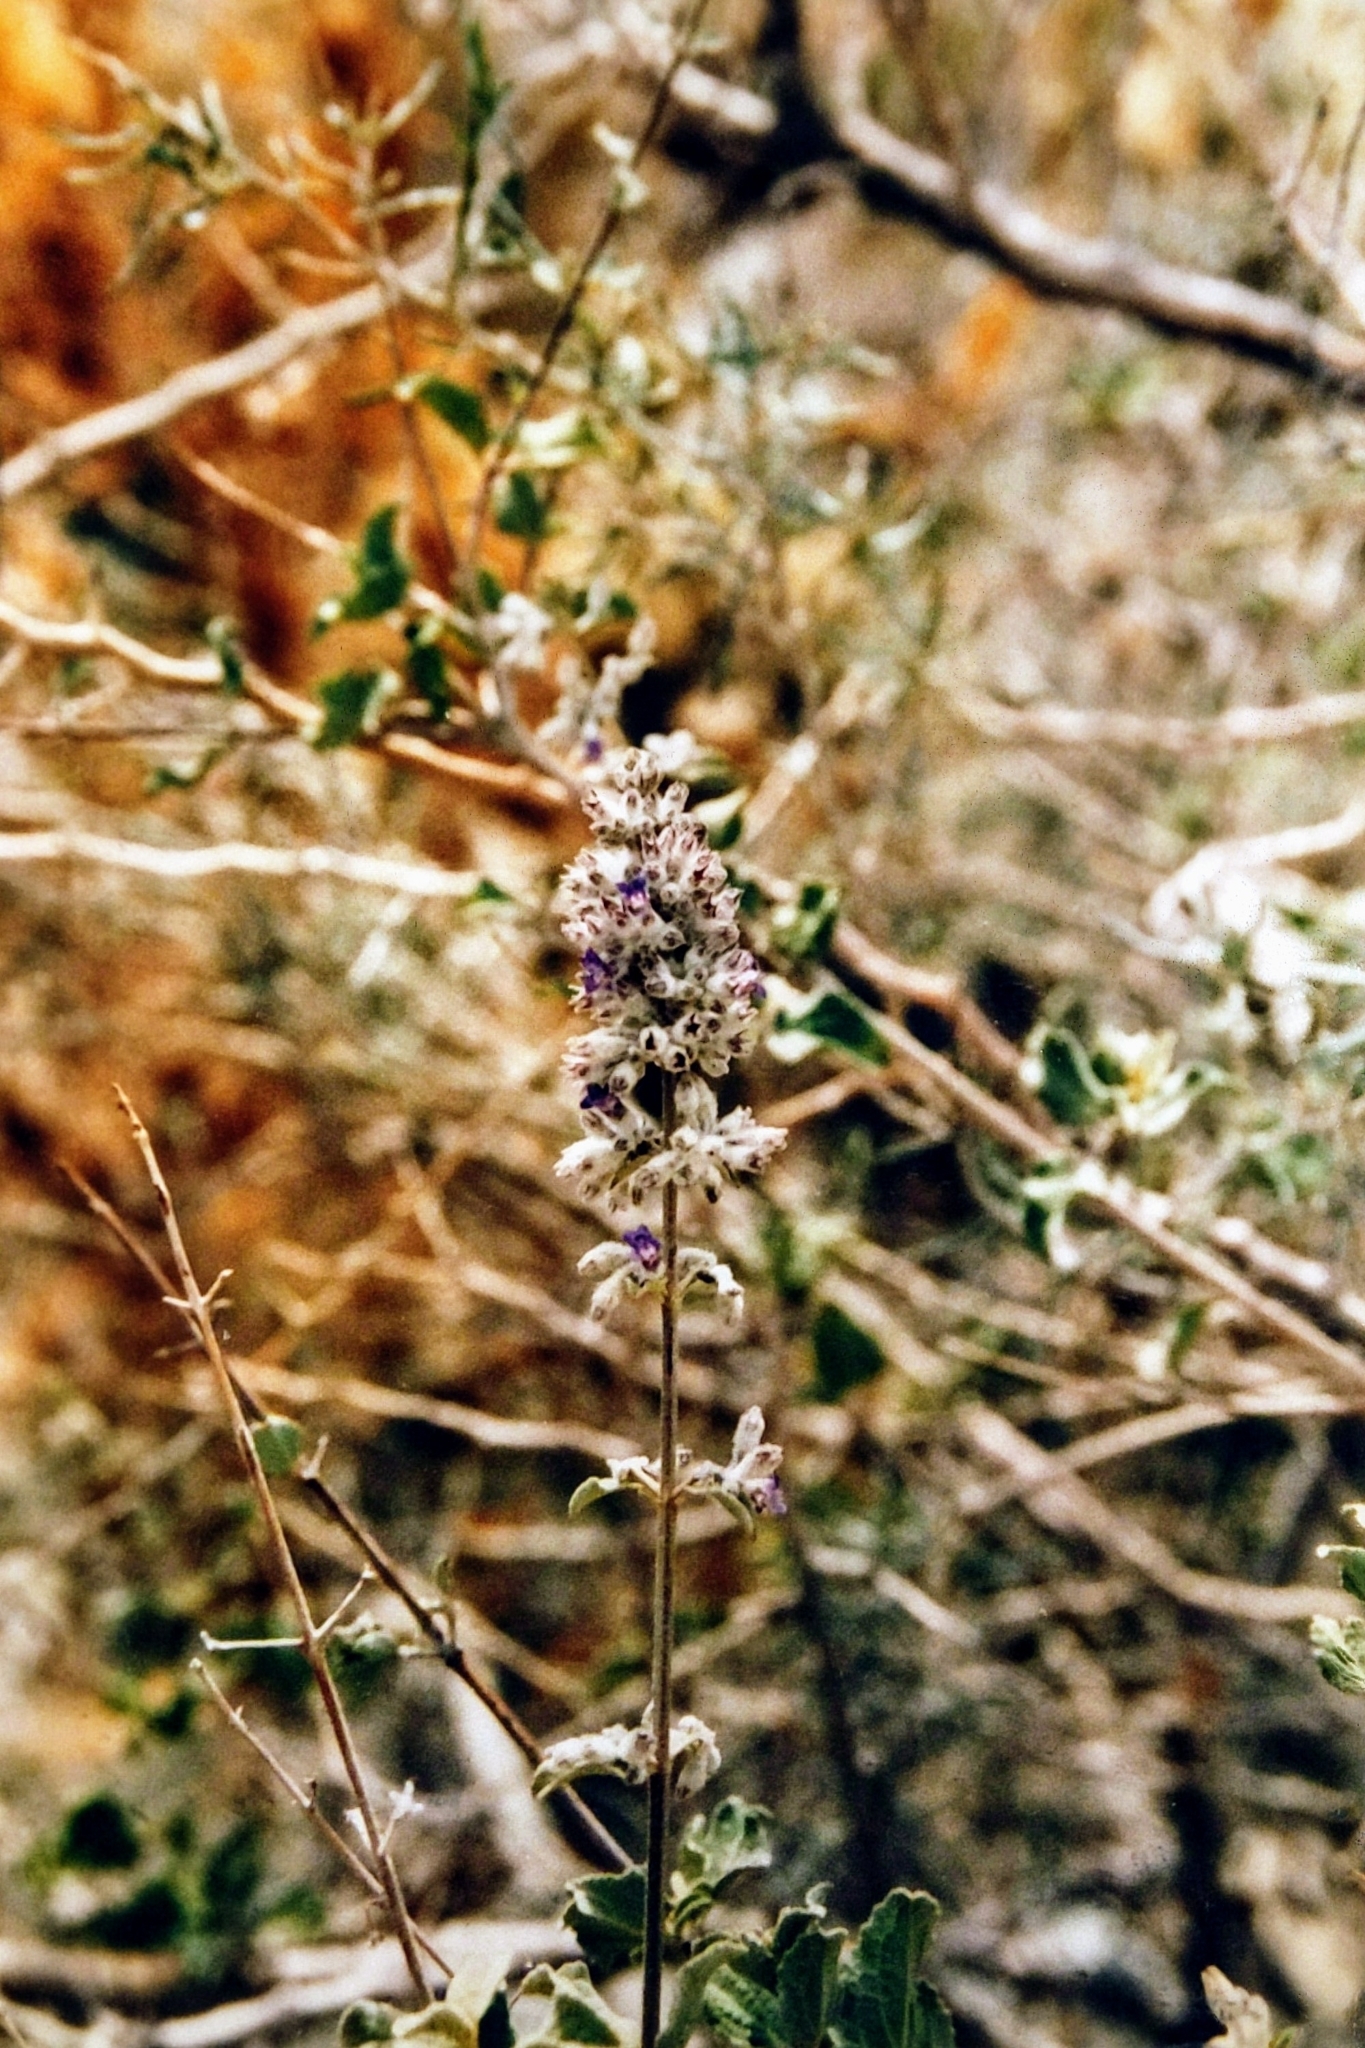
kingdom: Plantae
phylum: Tracheophyta
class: Magnoliopsida
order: Lamiales
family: Lamiaceae
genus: Condea
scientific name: Condea emoryi
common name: Chia
